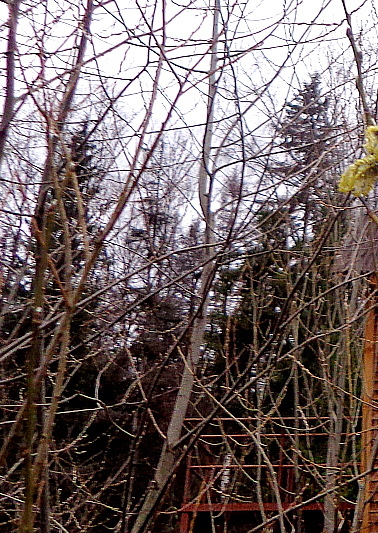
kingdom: Plantae
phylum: Tracheophyta
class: Pinopsida
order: Pinales
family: Pinaceae
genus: Picea
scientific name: Picea abies
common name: Norway spruce
